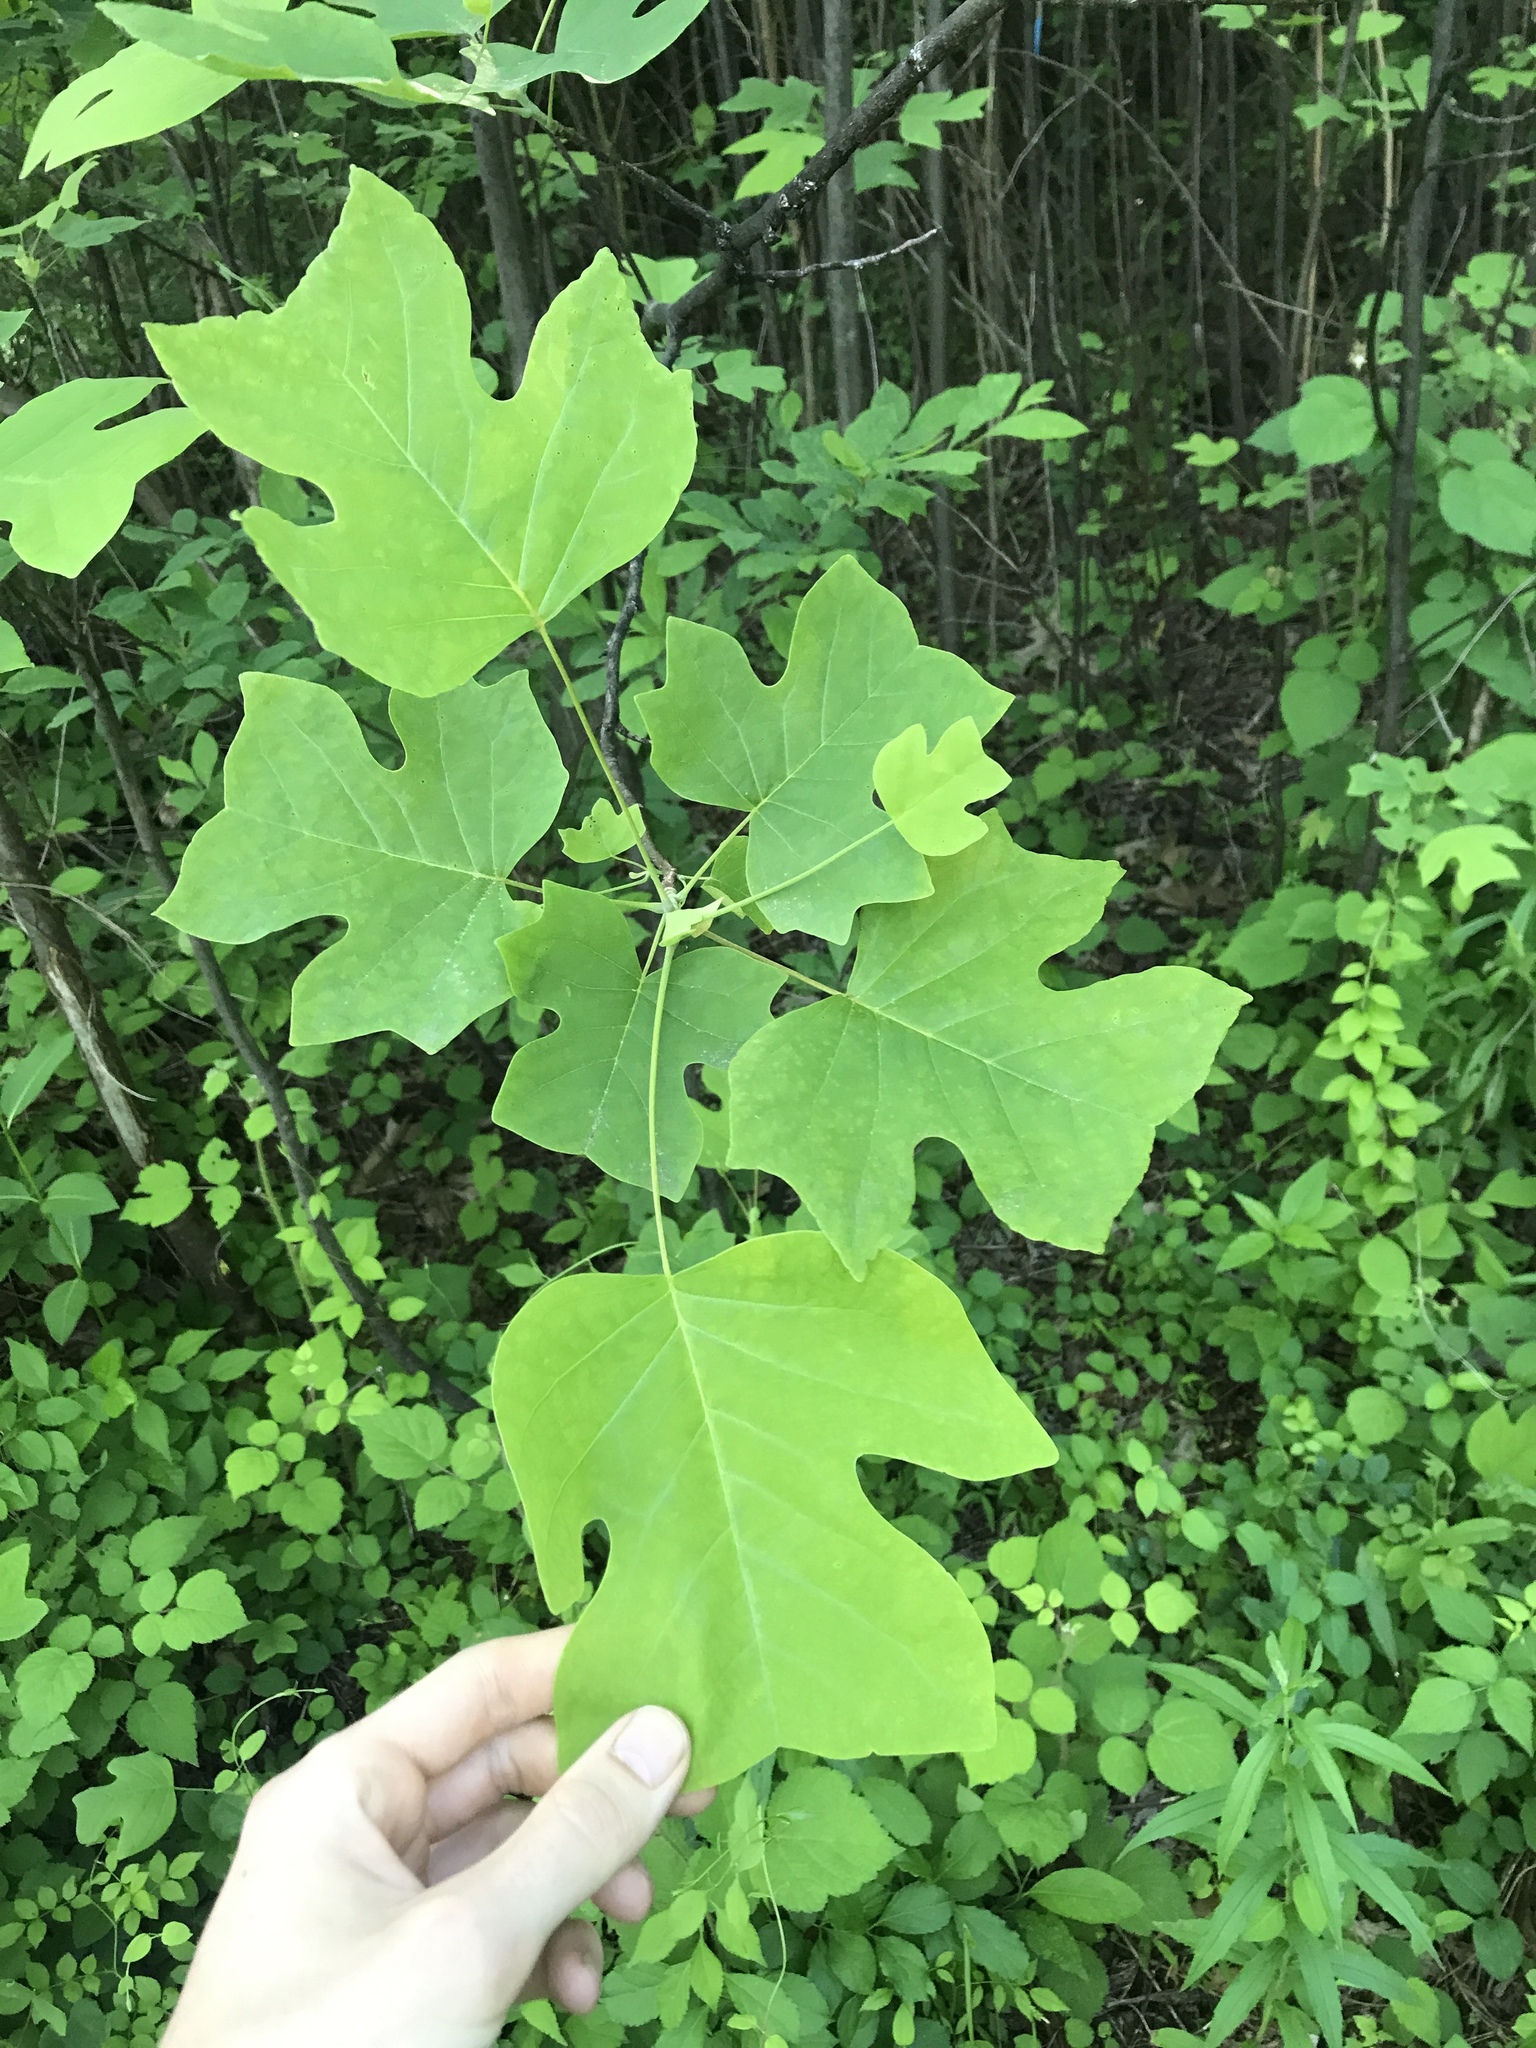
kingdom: Plantae
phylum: Tracheophyta
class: Magnoliopsida
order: Magnoliales
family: Magnoliaceae
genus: Liriodendron
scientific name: Liriodendron tulipifera
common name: Tulip tree
